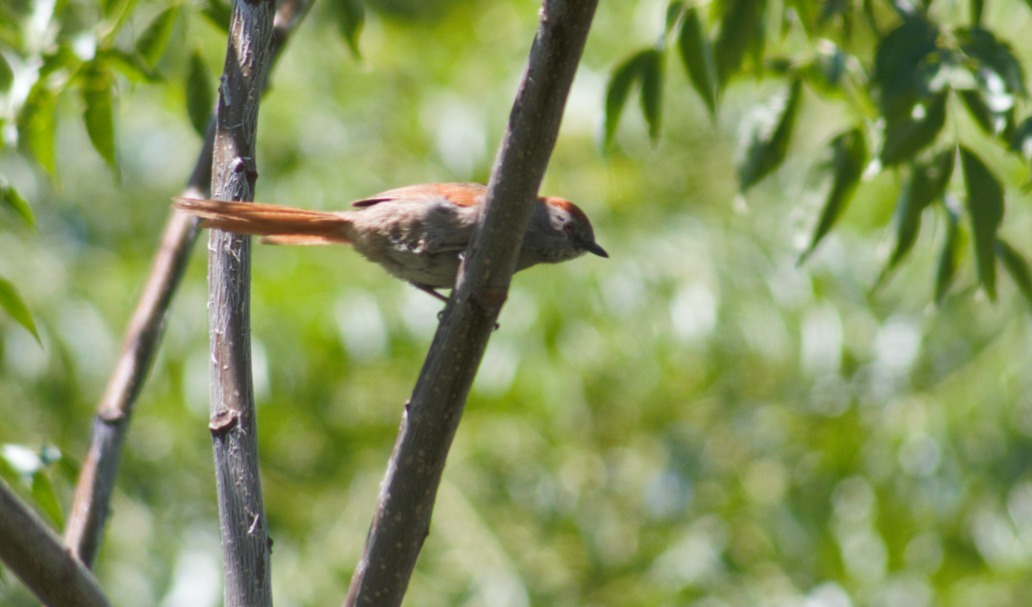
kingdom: Animalia
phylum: Chordata
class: Aves
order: Passeriformes
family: Furnariidae
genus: Synallaxis
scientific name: Synallaxis frontalis
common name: Sooty-fronted spinetail
